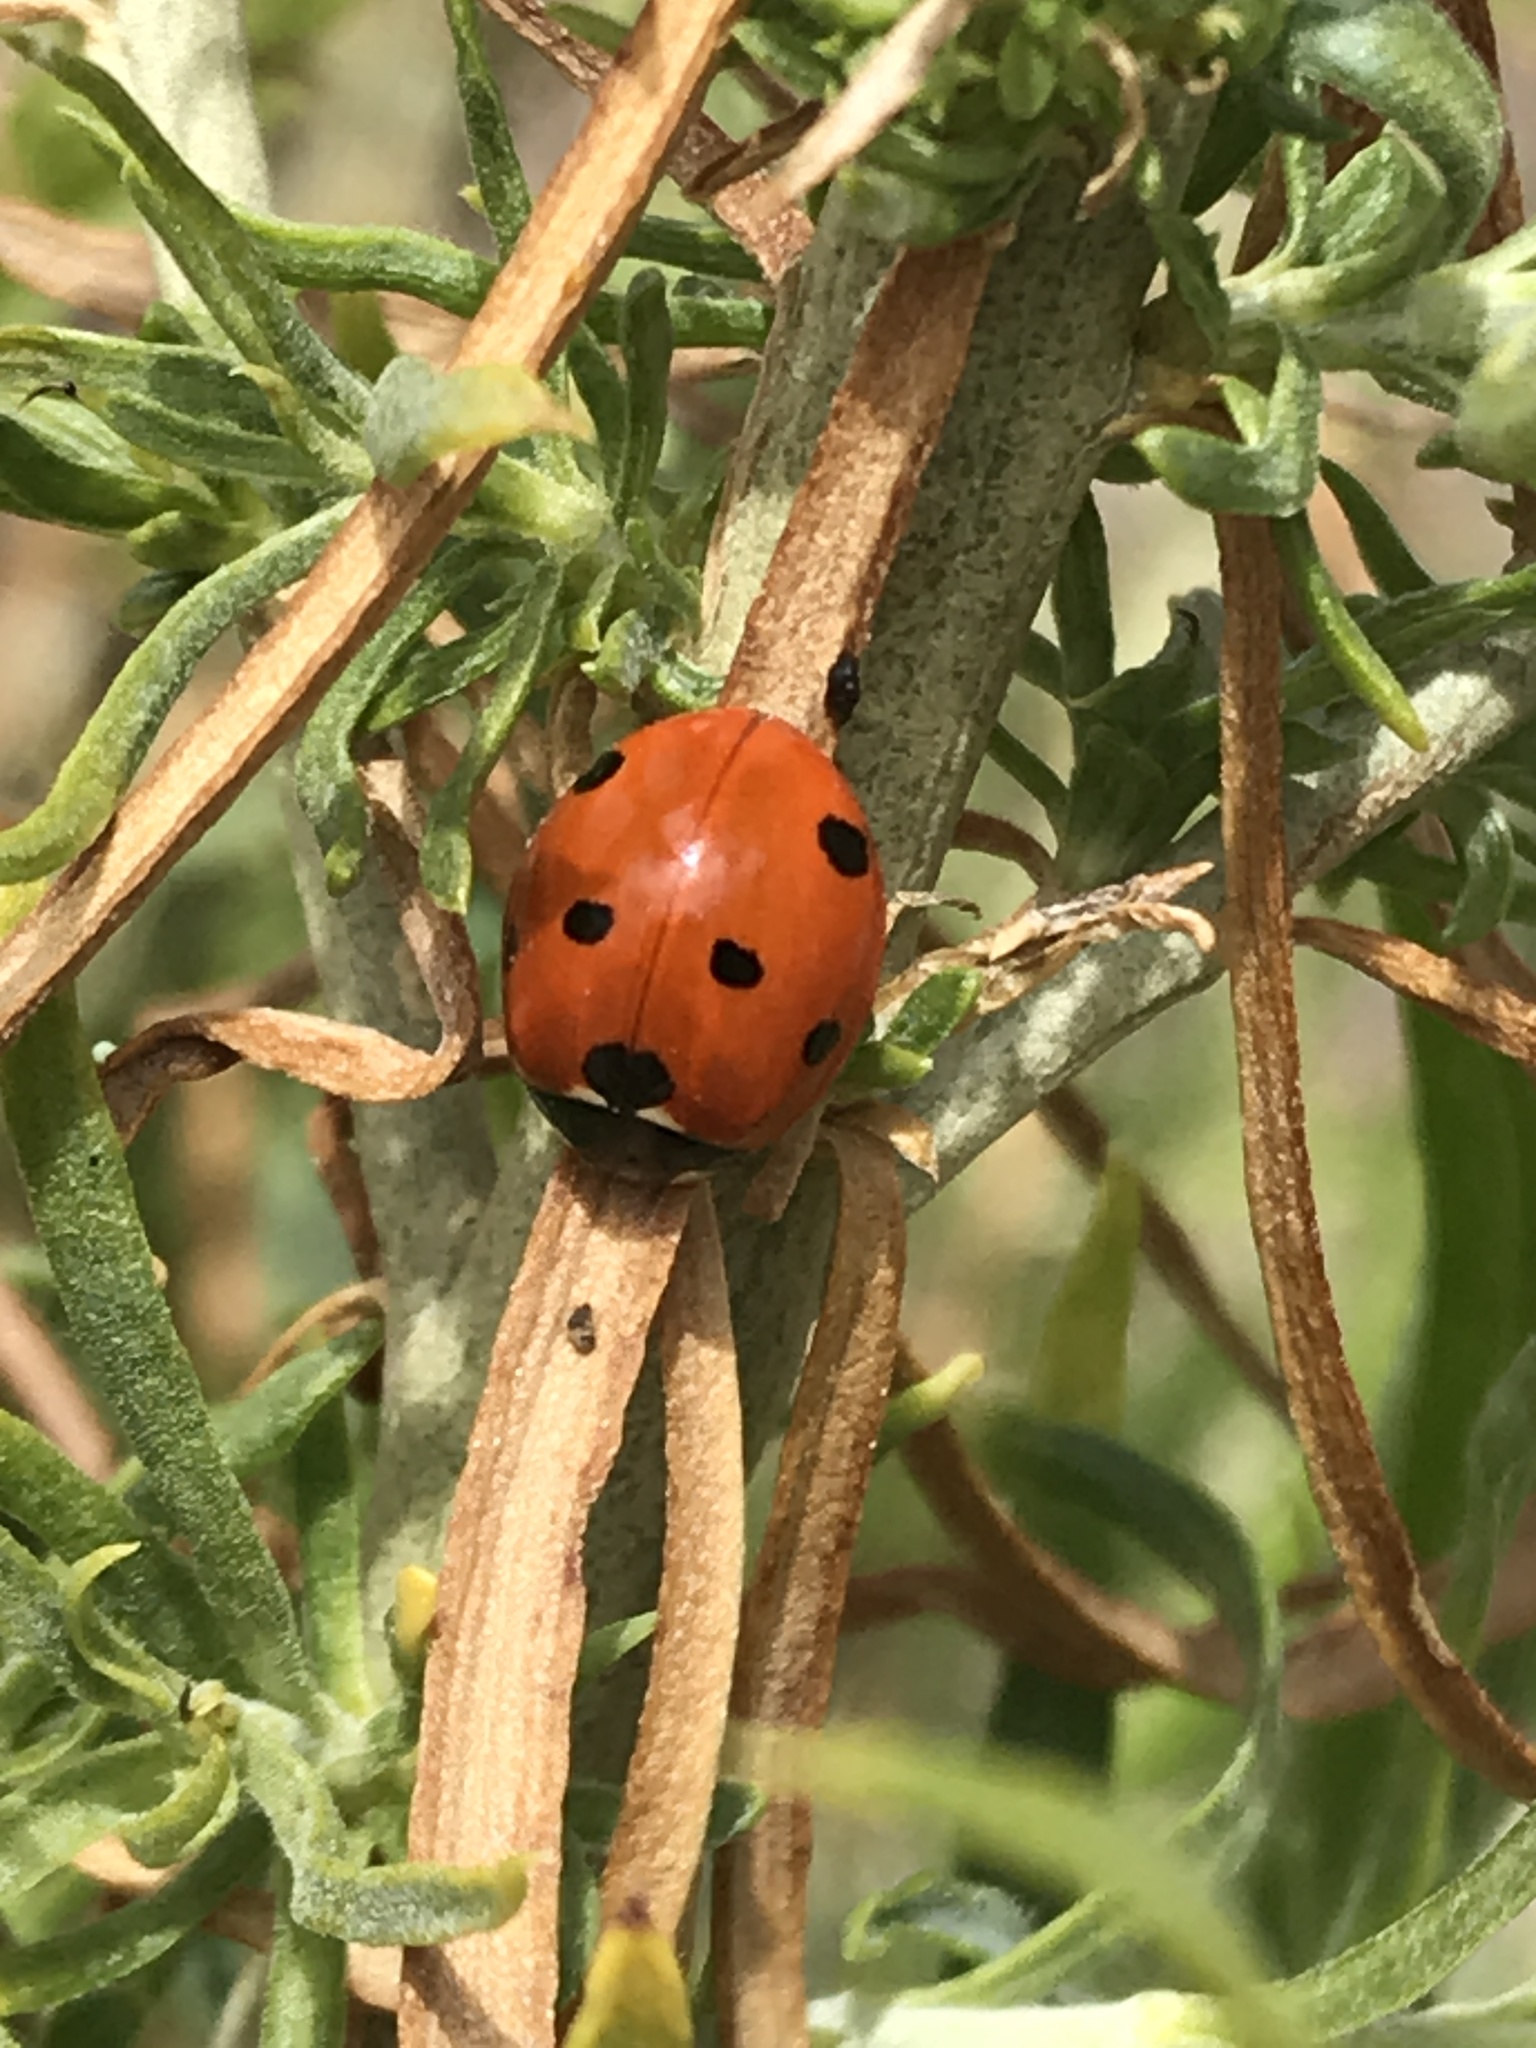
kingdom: Animalia
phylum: Arthropoda
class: Insecta
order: Coleoptera
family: Coccinellidae
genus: Coccinella
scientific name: Coccinella septempunctata
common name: Sevenspotted lady beetle
